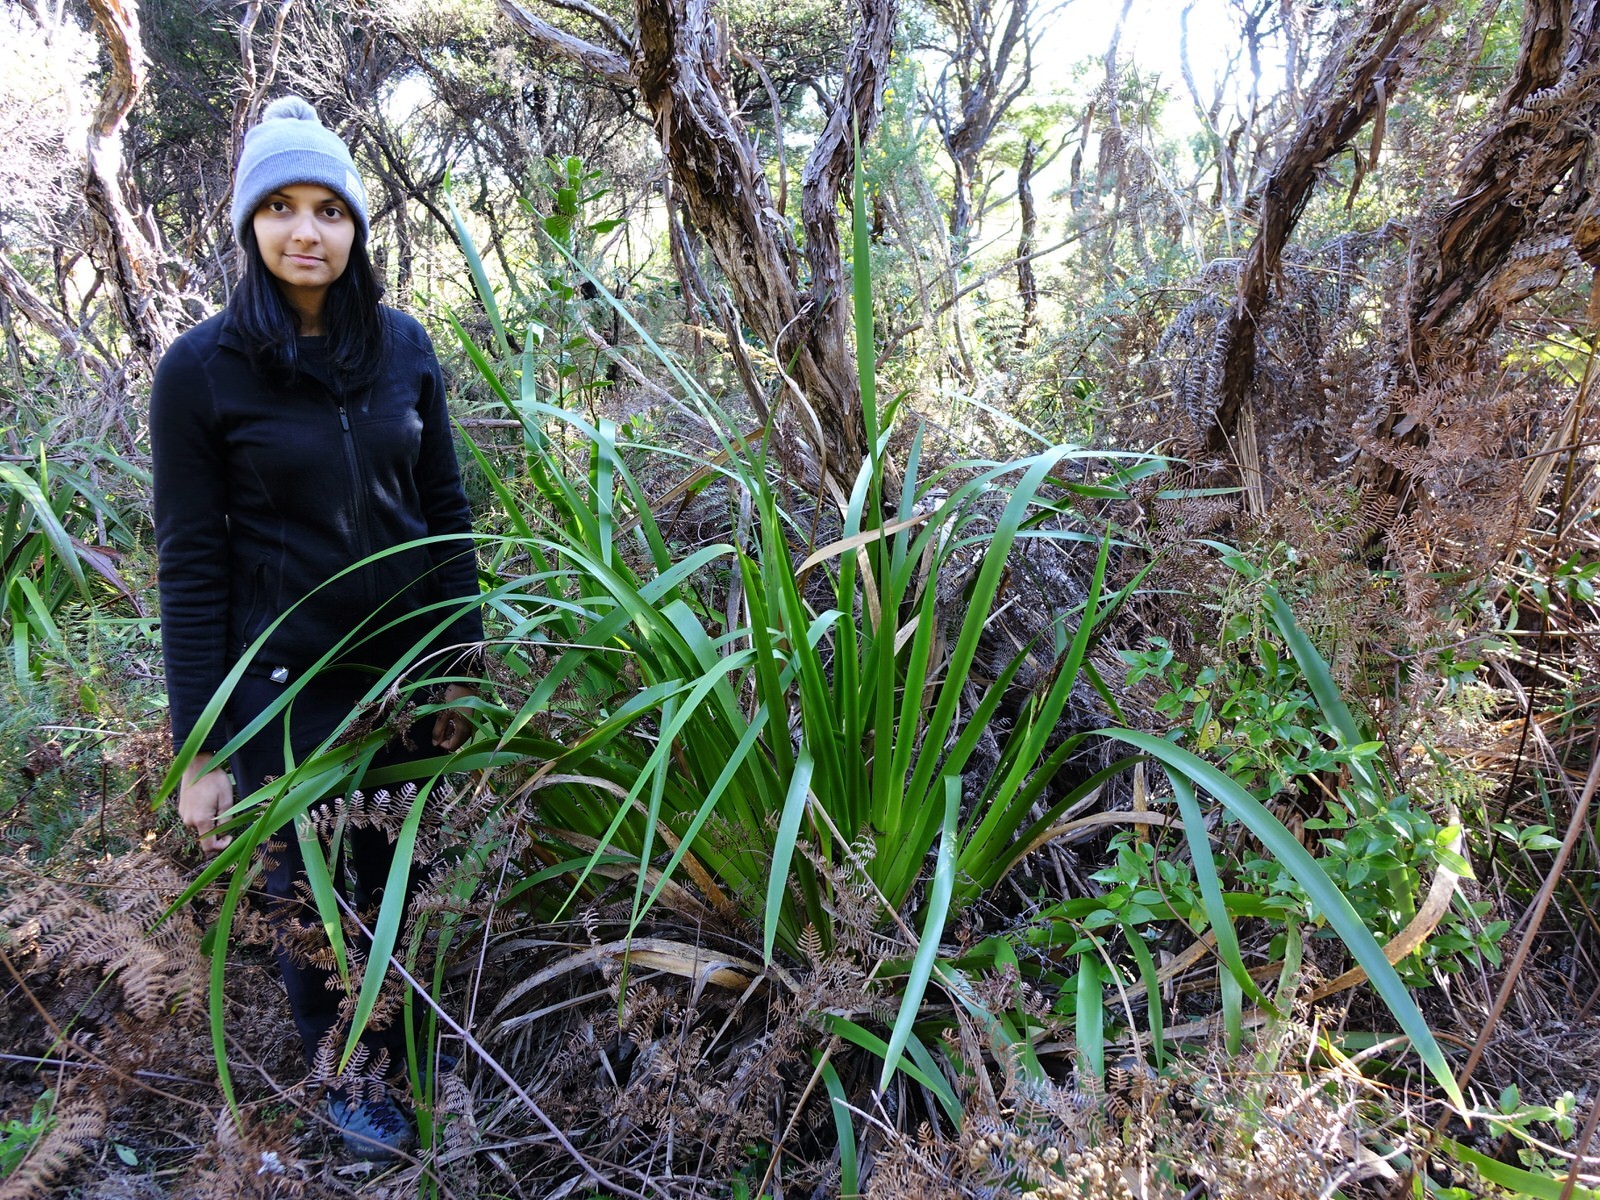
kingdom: Plantae
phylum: Tracheophyta
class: Liliopsida
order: Poales
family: Cyperaceae
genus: Machaerina
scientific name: Machaerina sinclairii
